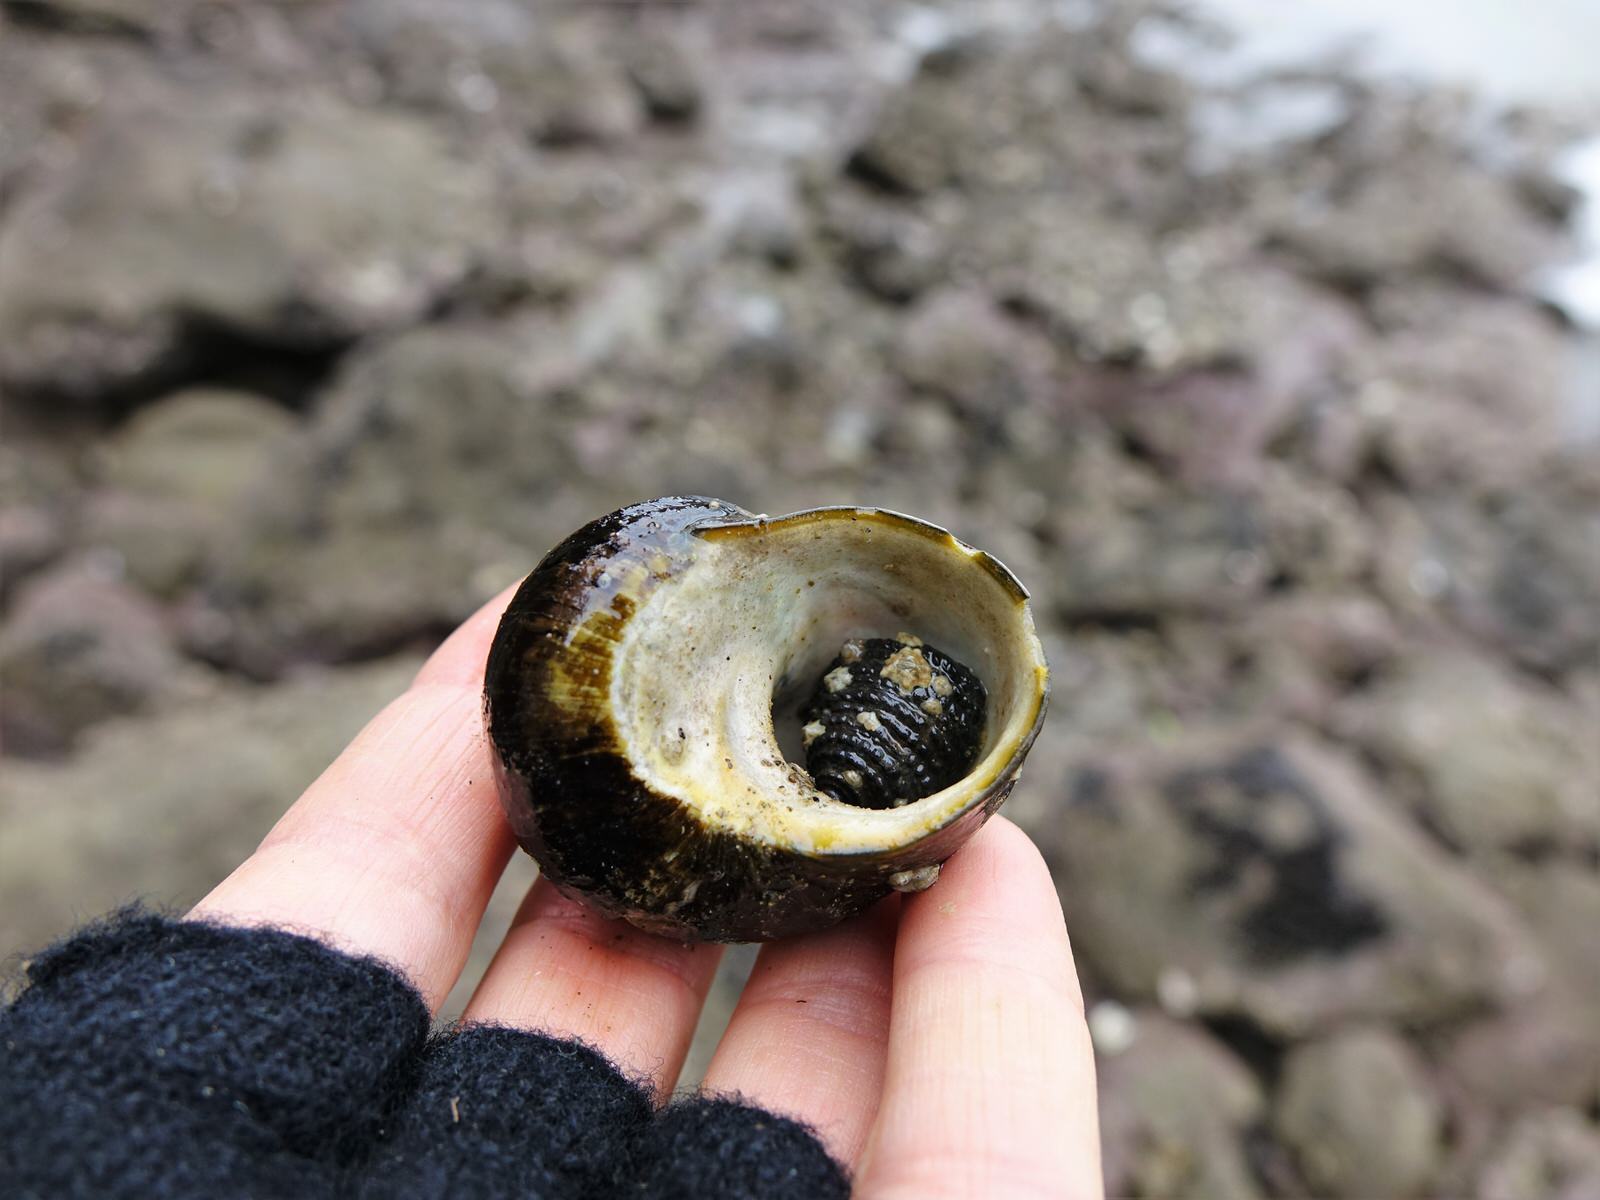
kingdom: Animalia
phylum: Mollusca
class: Gastropoda
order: Trochida
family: Turbinidae
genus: Lunella
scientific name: Lunella smaragda
